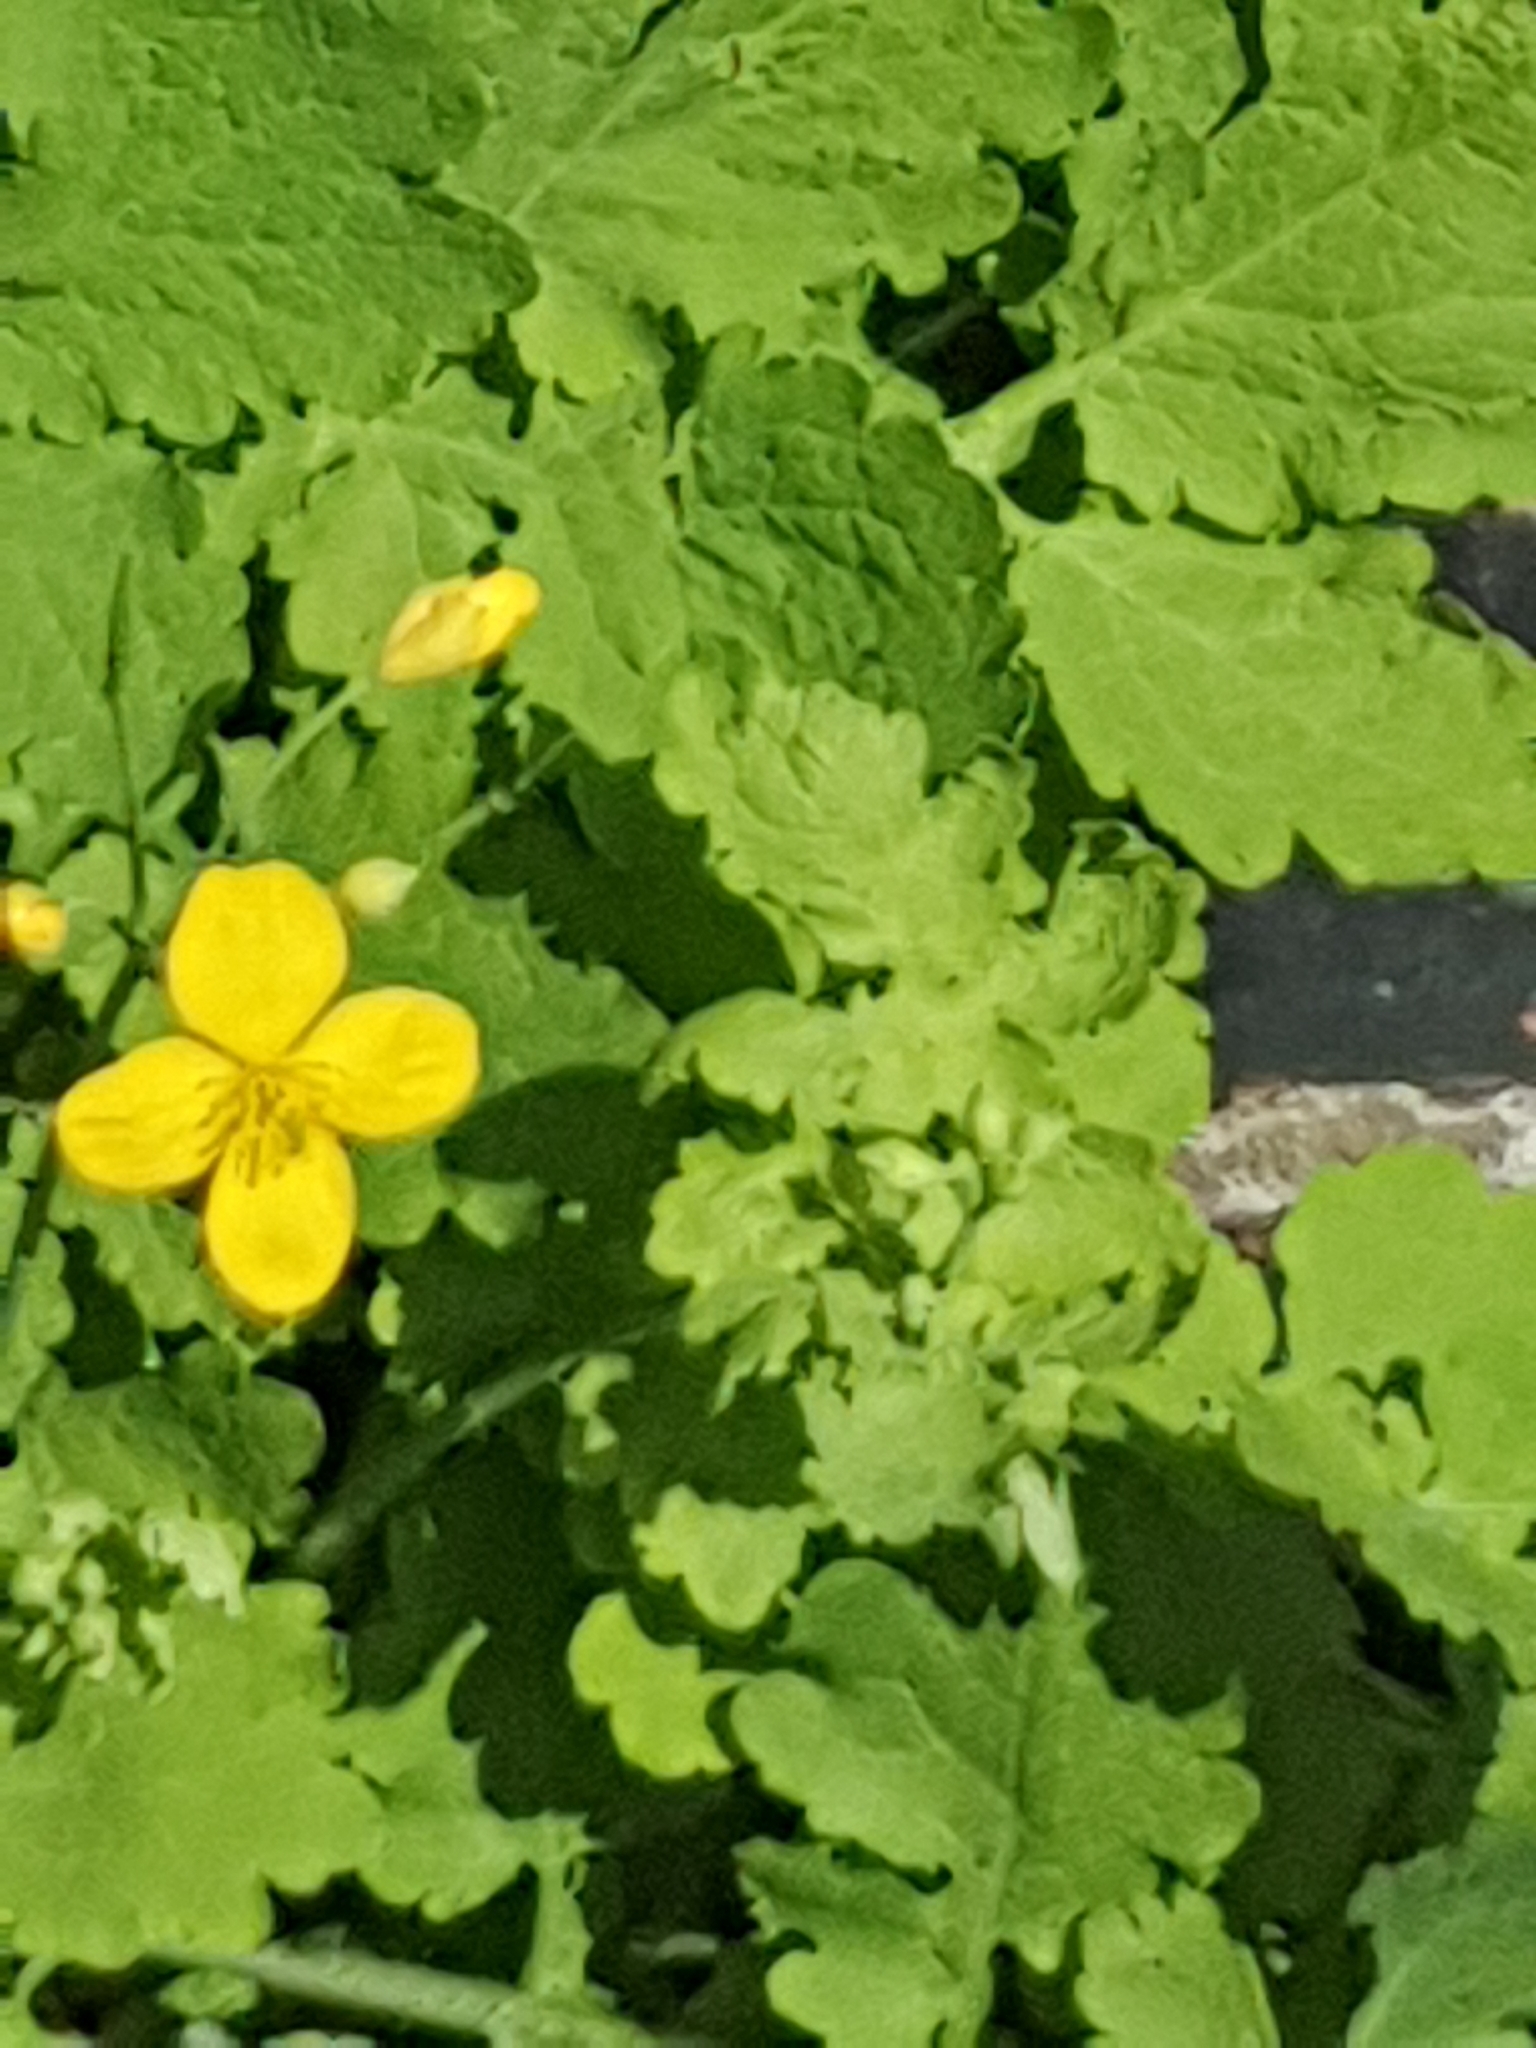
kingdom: Plantae
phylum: Tracheophyta
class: Magnoliopsida
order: Ranunculales
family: Papaveraceae
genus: Chelidonium
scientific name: Chelidonium majus
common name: Greater celandine
